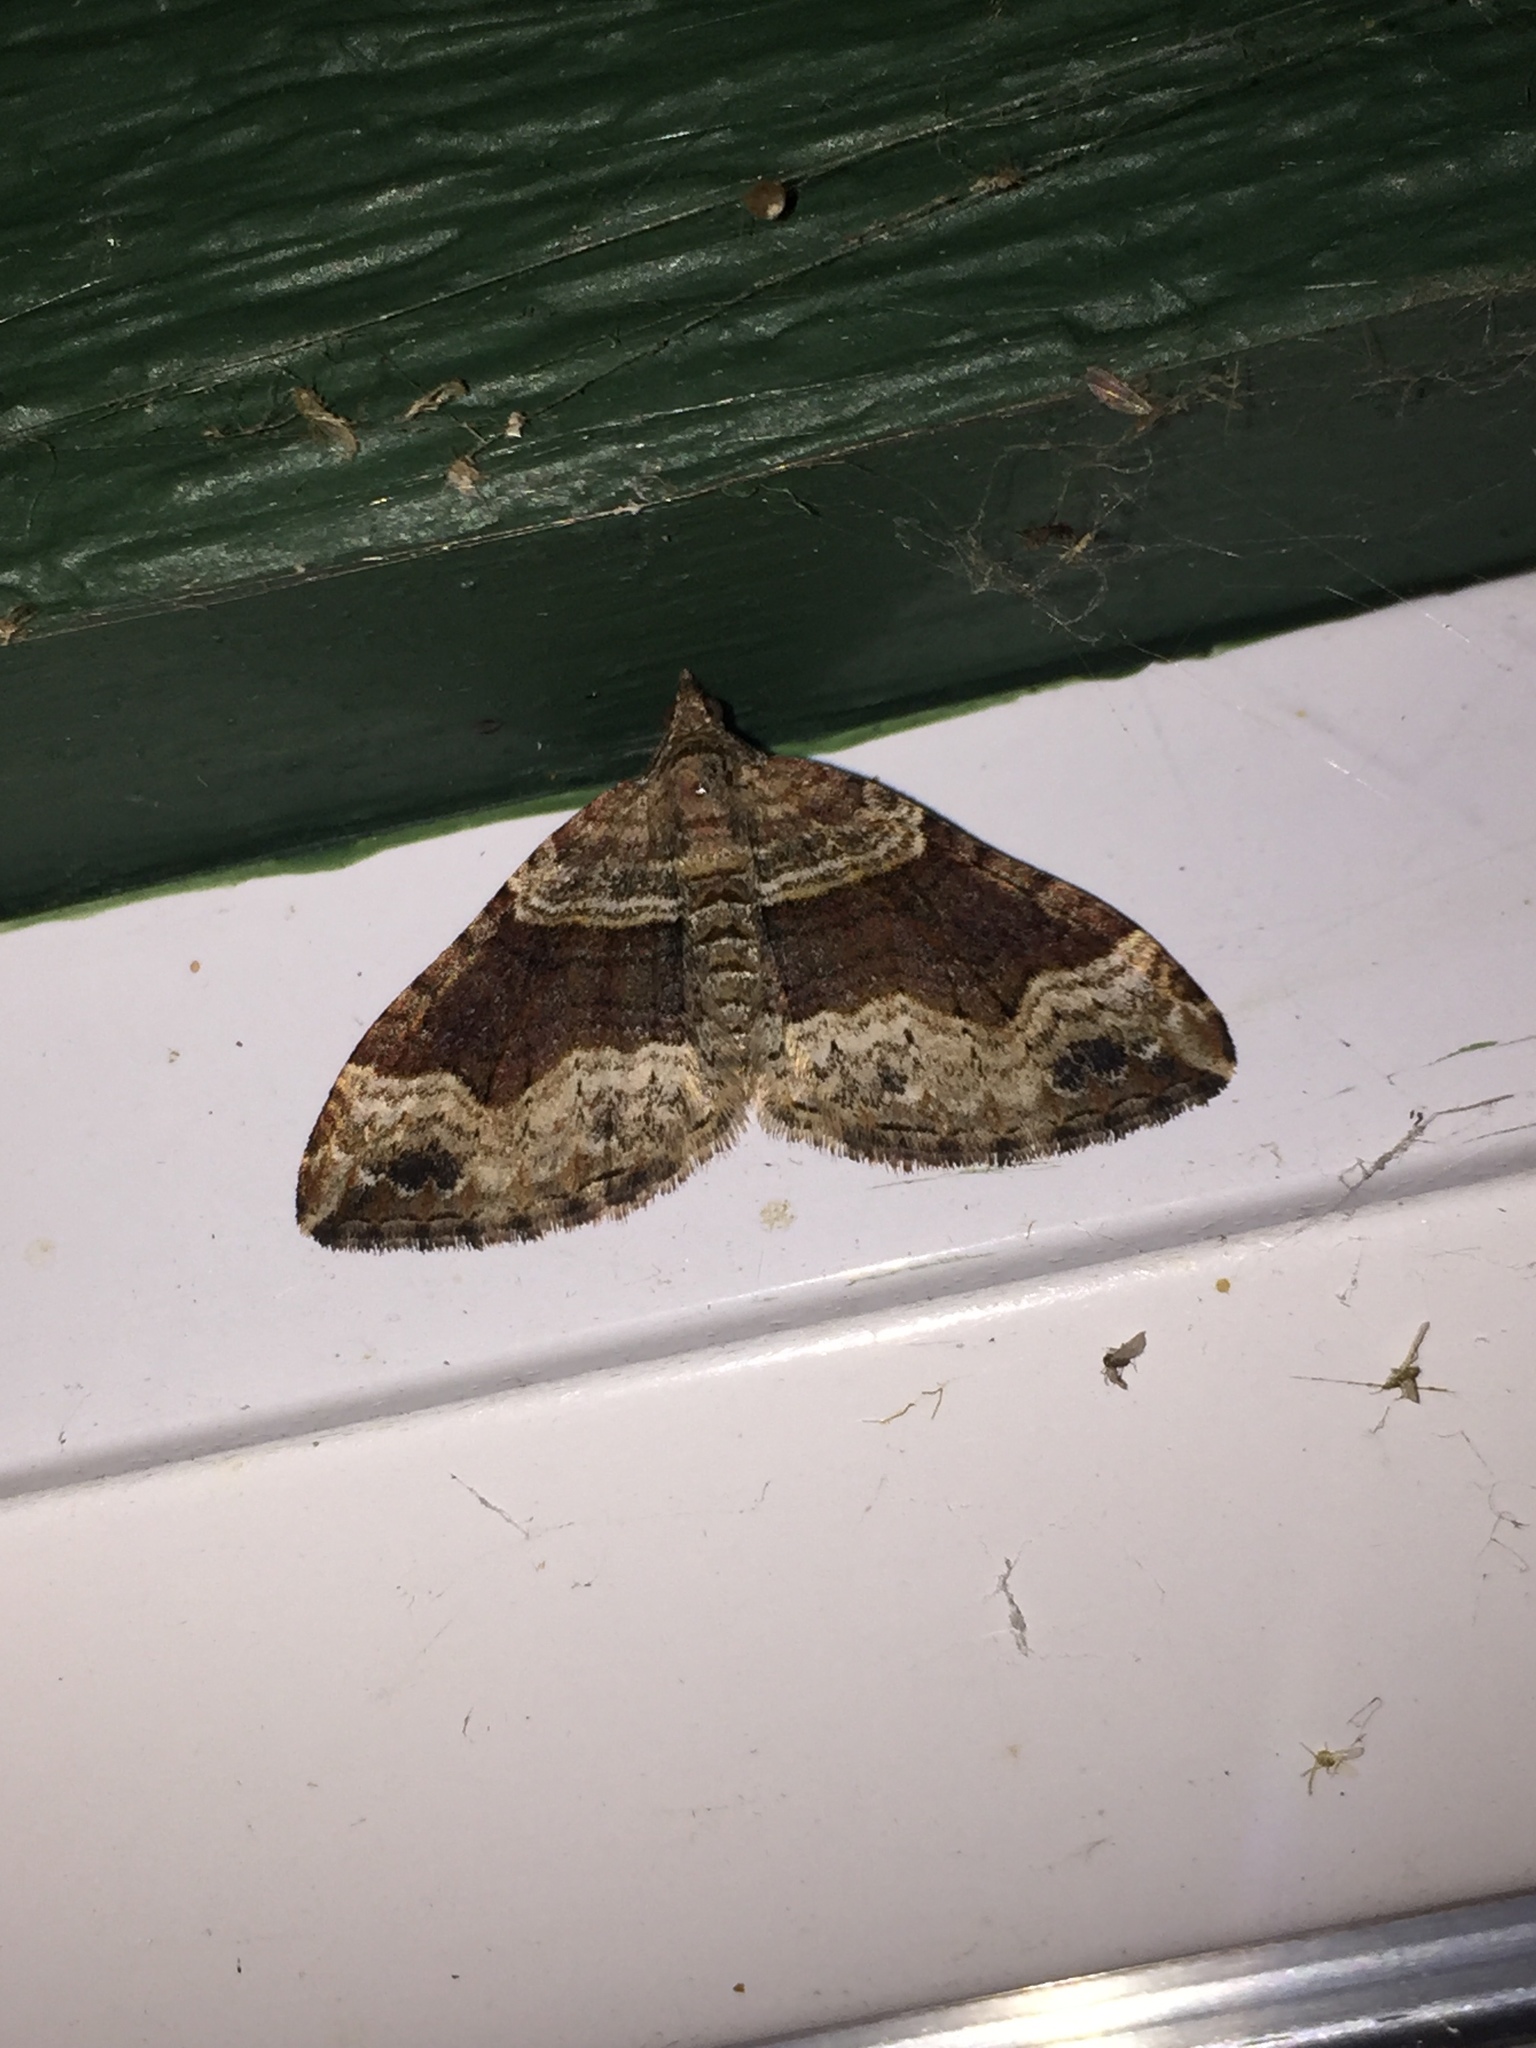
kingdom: Animalia
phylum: Arthropoda
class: Insecta
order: Lepidoptera
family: Geometridae
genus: Xanthorhoe
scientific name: Xanthorhoe defensaria
